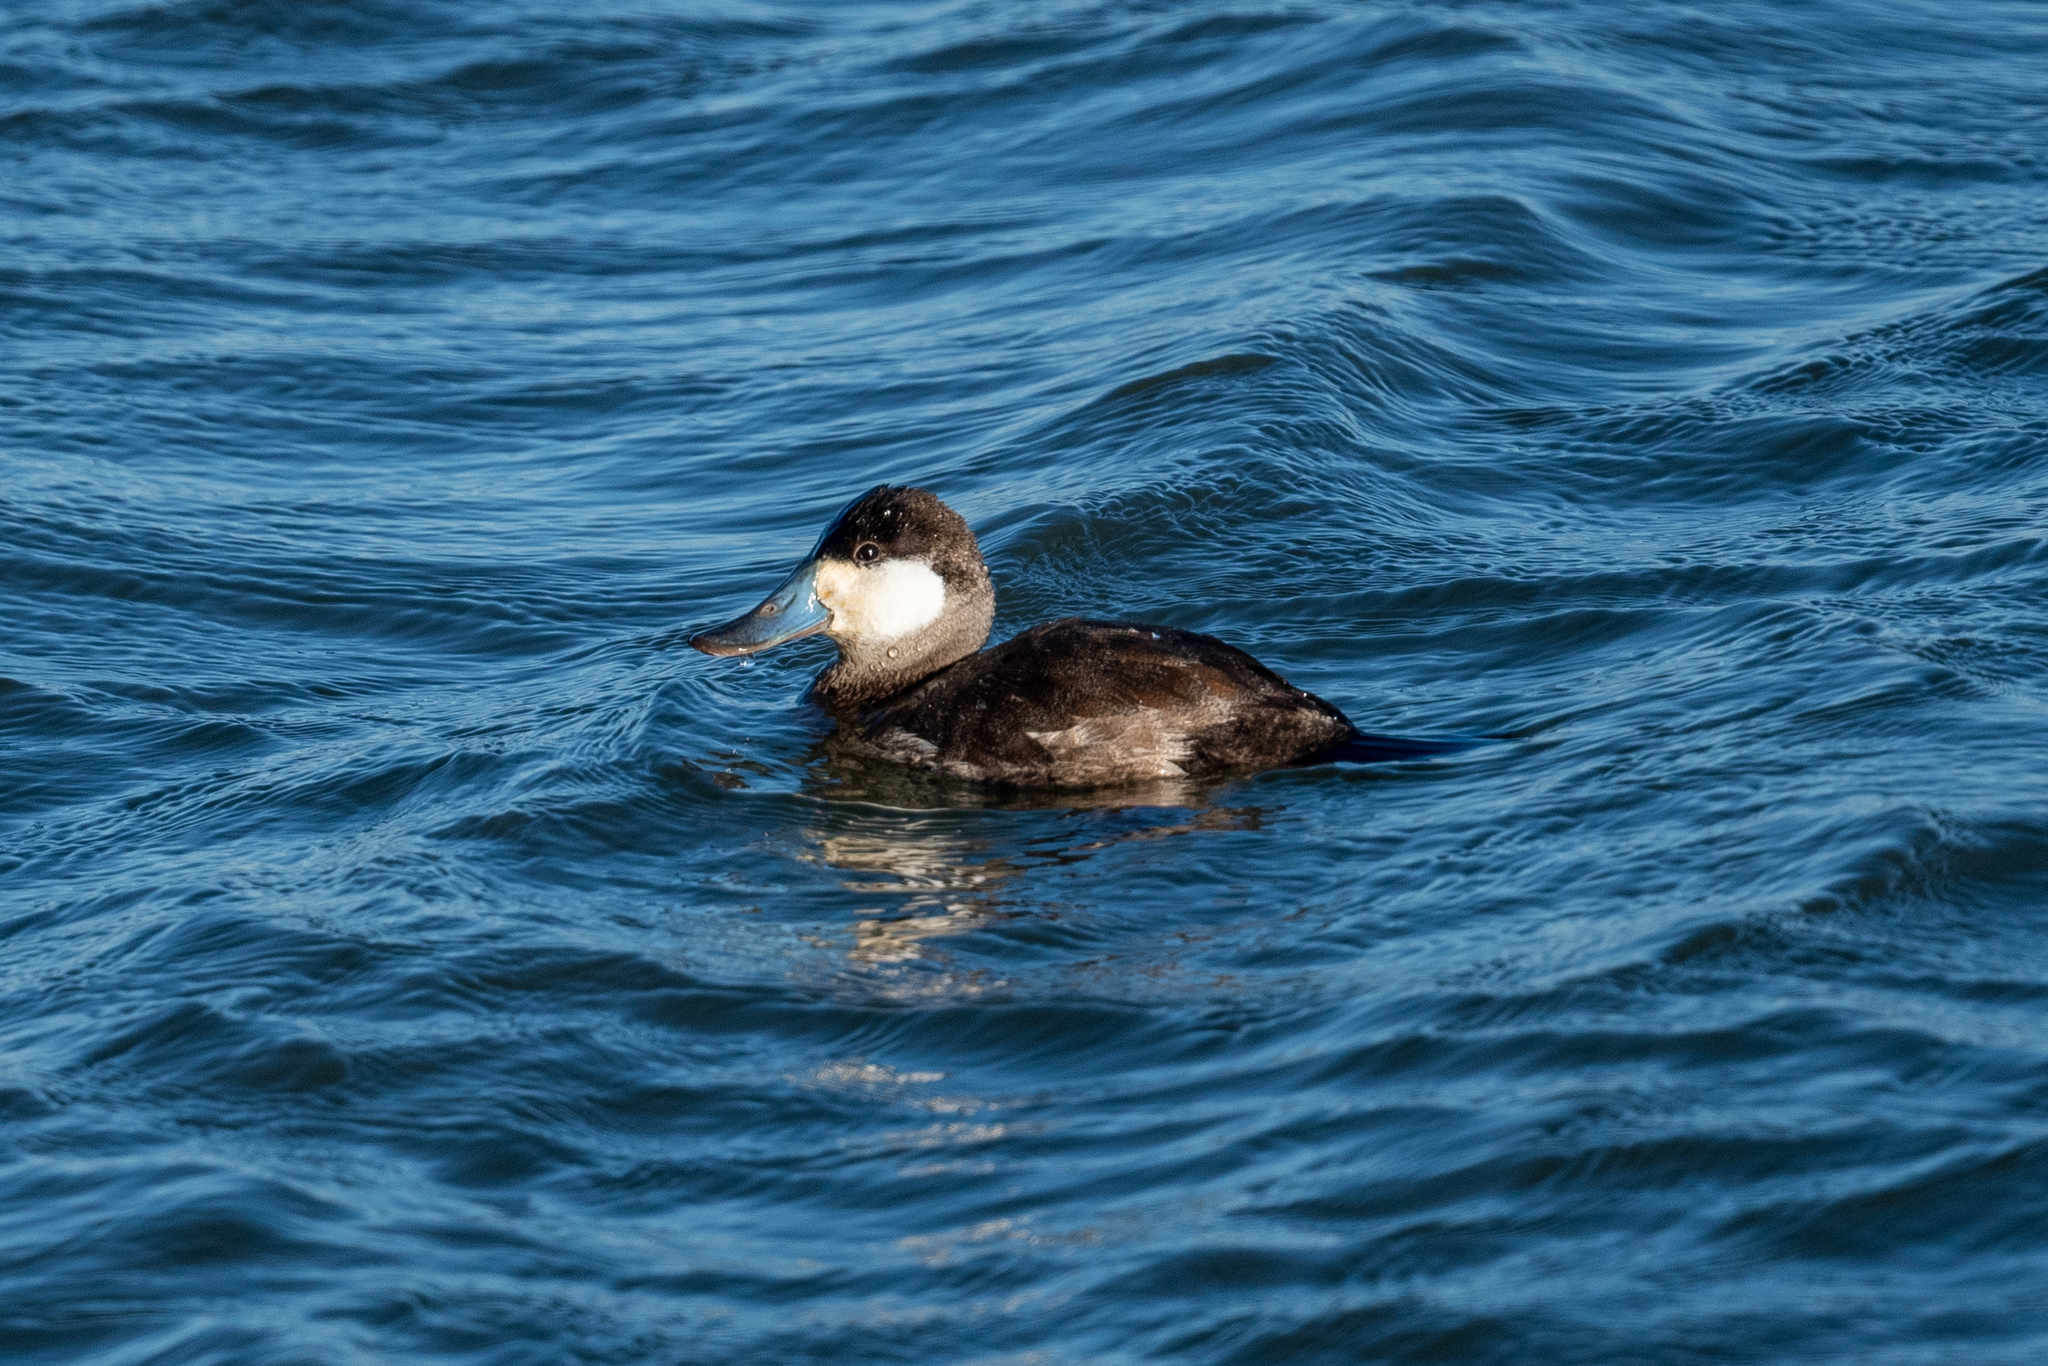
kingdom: Animalia
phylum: Chordata
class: Aves
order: Anseriformes
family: Anatidae
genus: Oxyura
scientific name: Oxyura jamaicensis
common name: Ruddy duck
